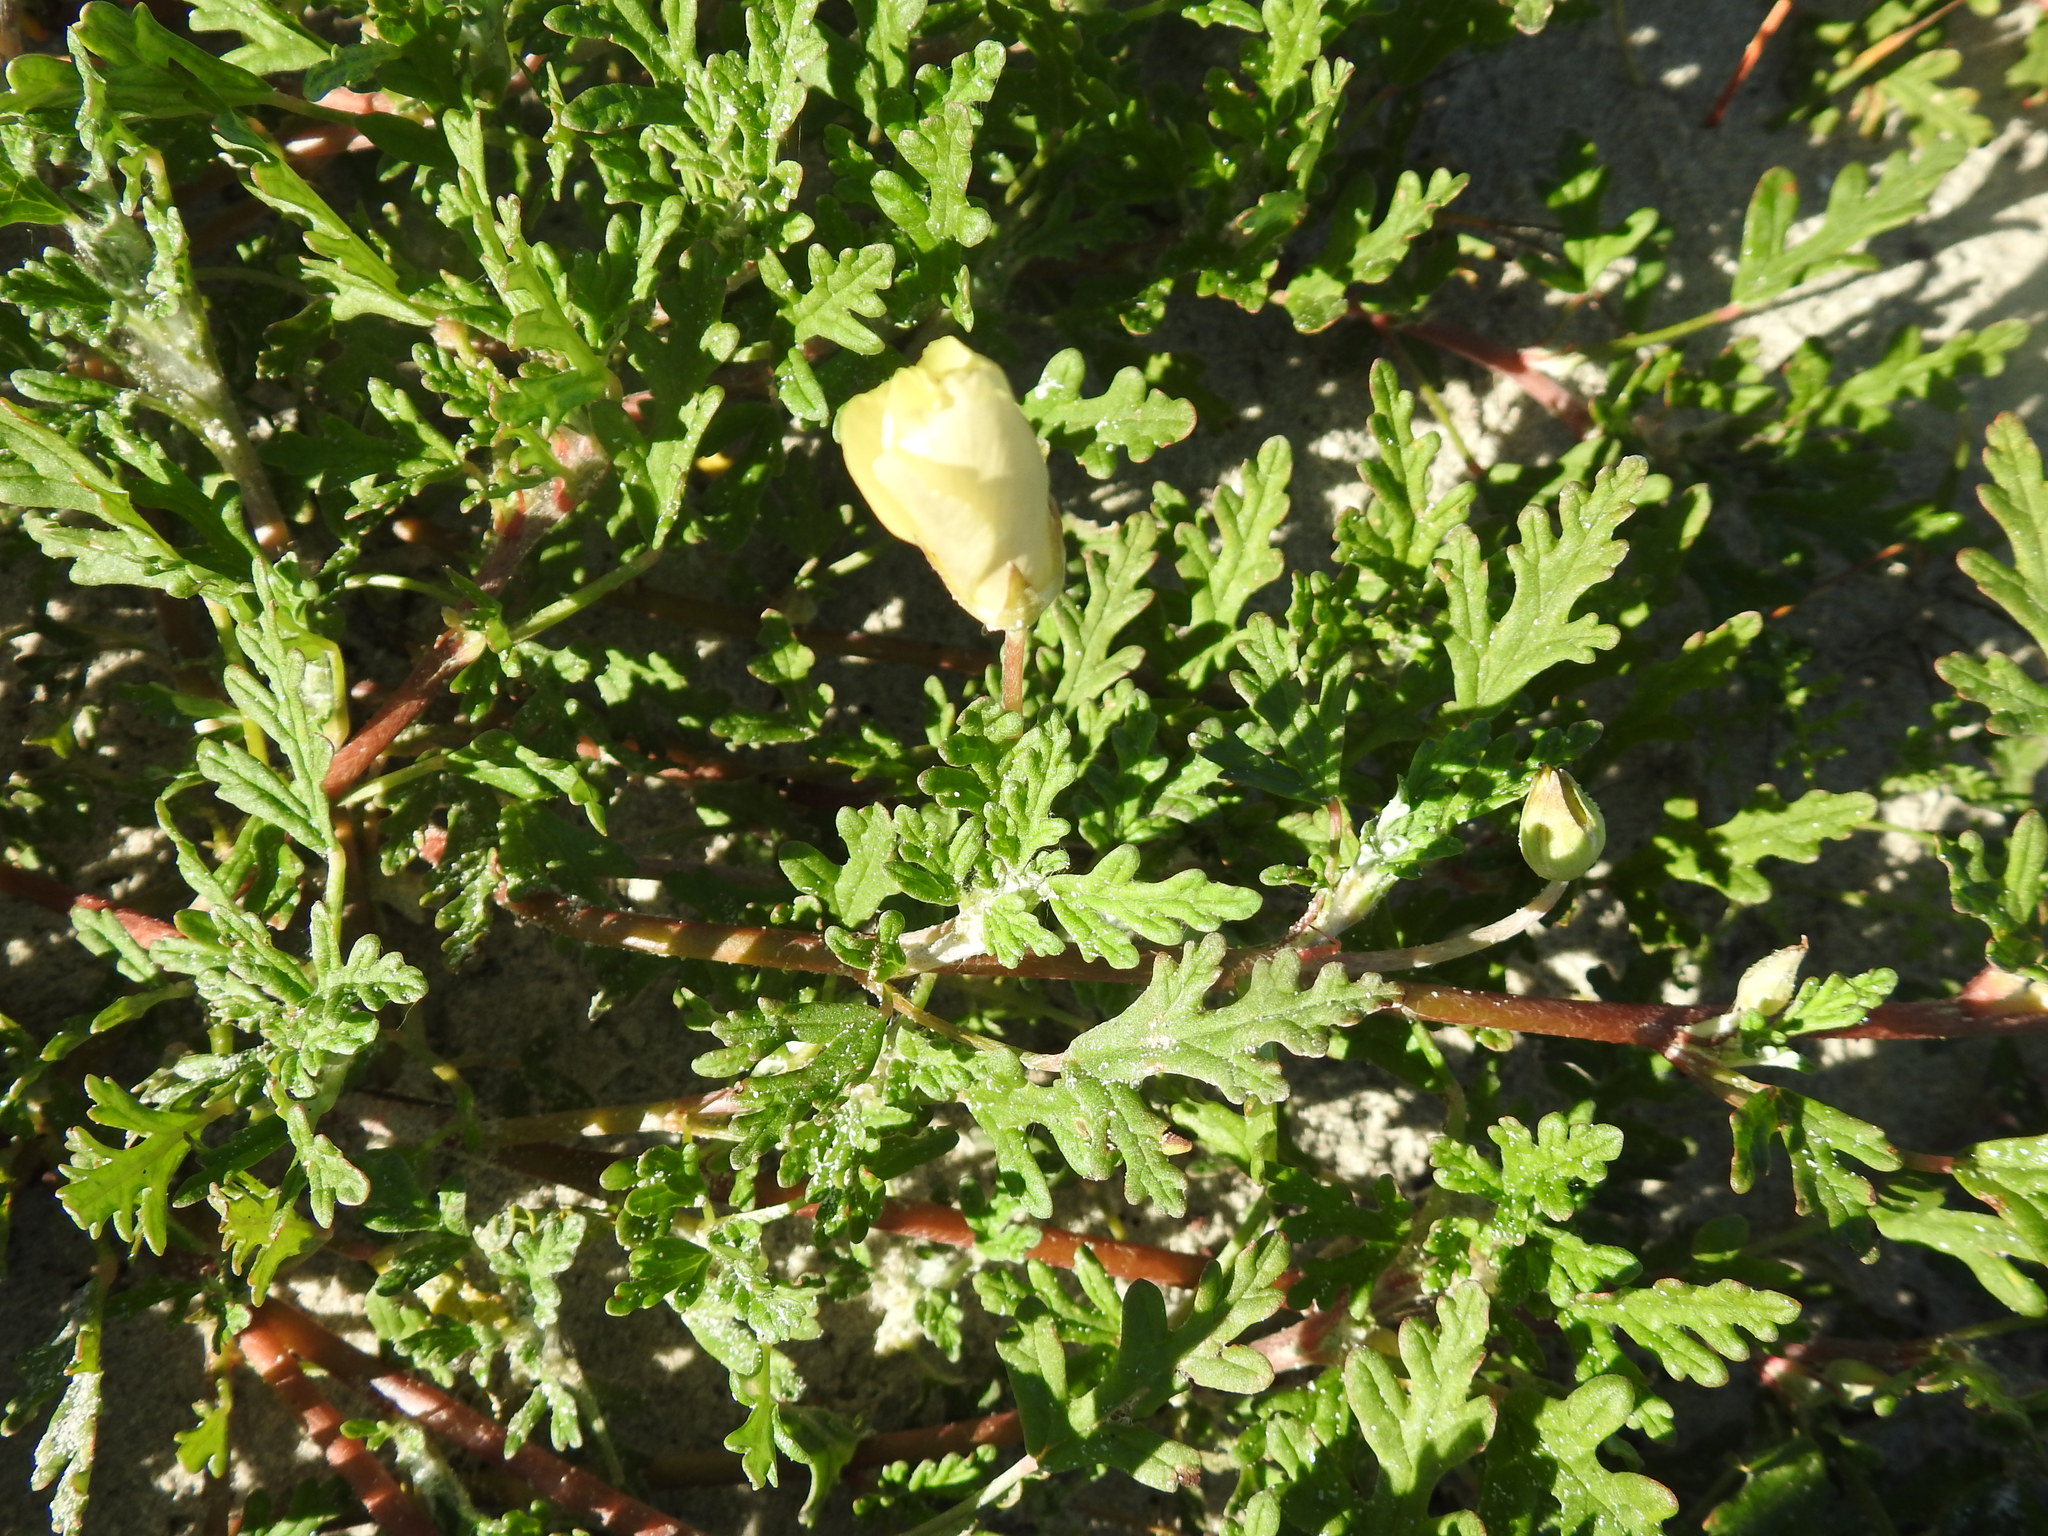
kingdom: Plantae
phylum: Tracheophyta
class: Magnoliopsida
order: Malvales
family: Neuradaceae
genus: Grielum
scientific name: Grielum humifusum
